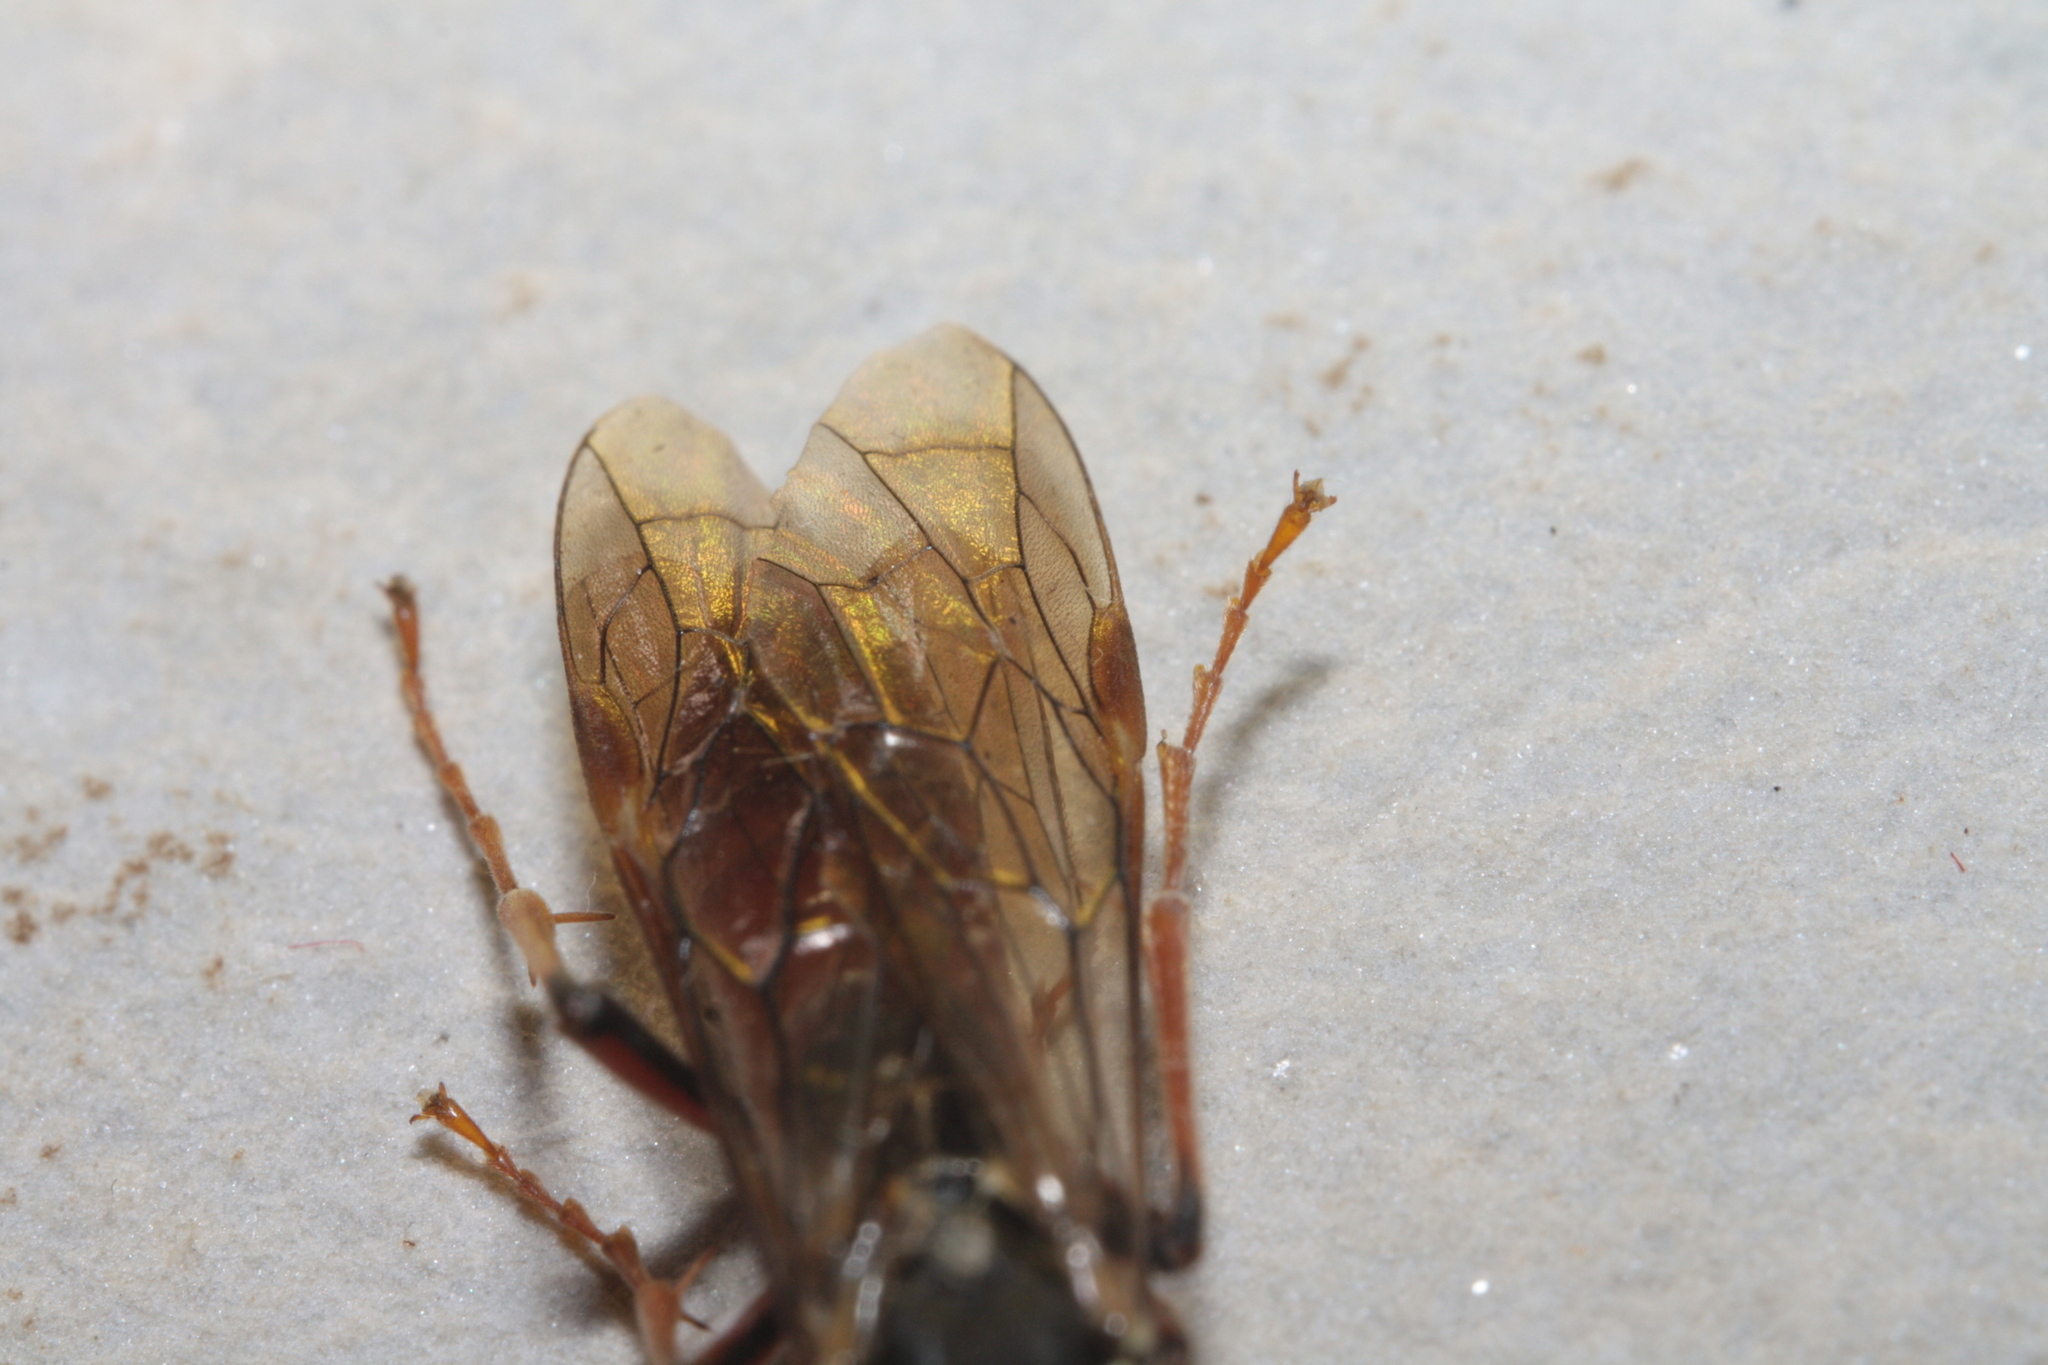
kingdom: Animalia
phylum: Arthropoda
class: Insecta
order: Hymenoptera
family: Tenthredinidae
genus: Tenthredo
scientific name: Tenthredo ferruginea
